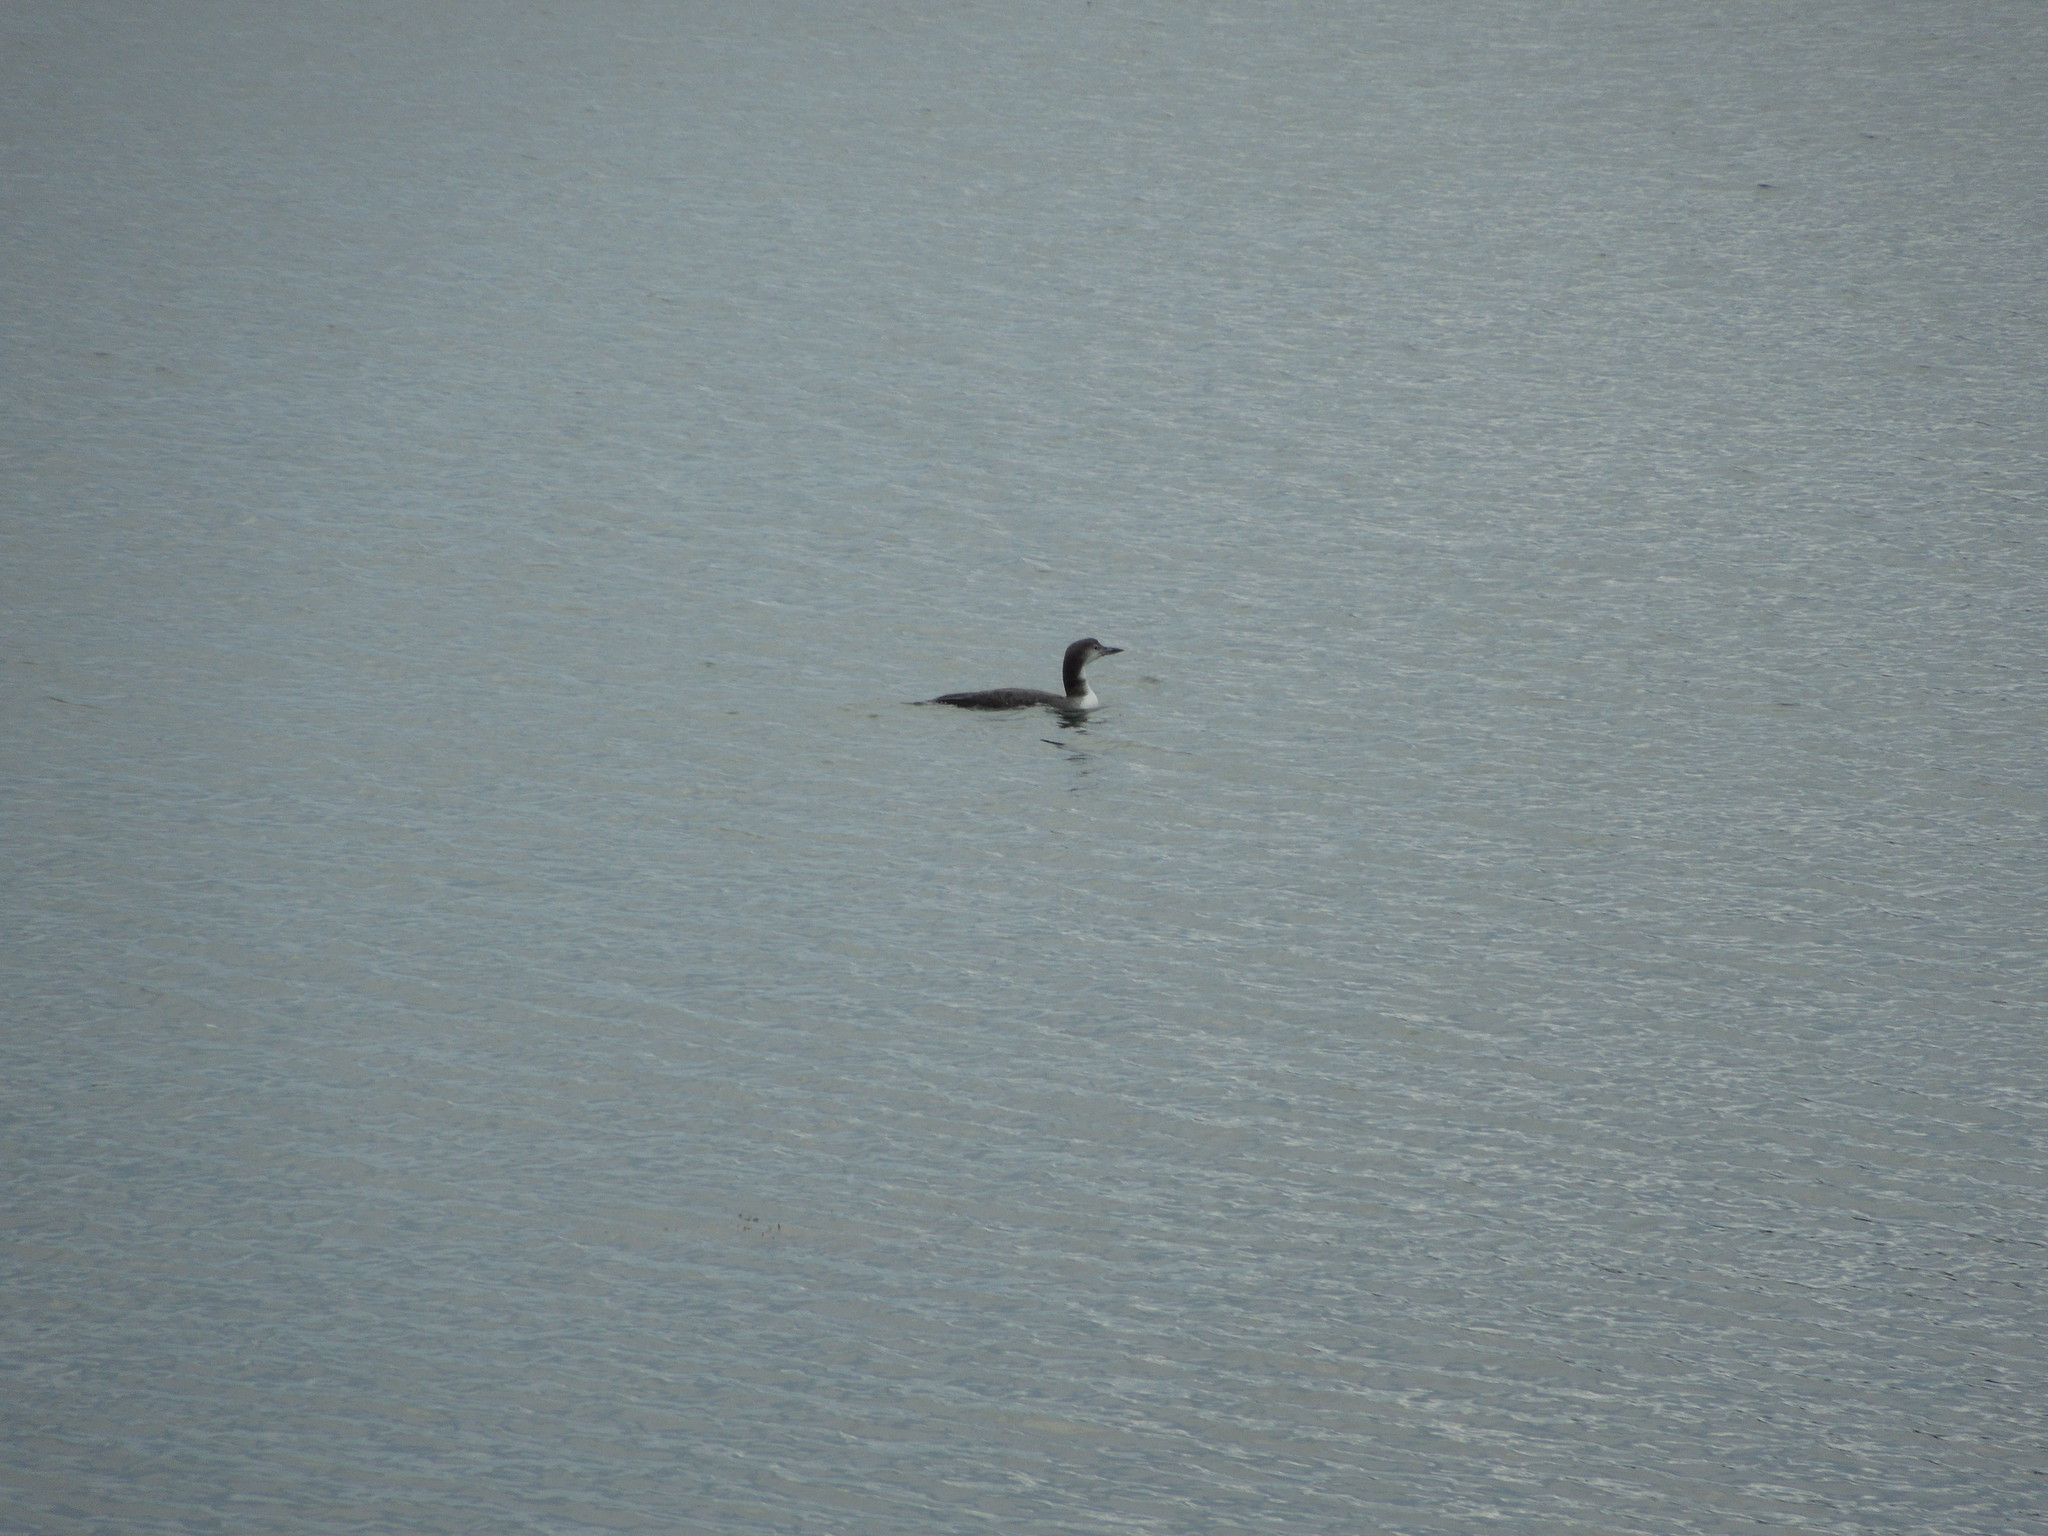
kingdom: Animalia
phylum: Chordata
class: Aves
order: Gaviiformes
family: Gaviidae
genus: Gavia
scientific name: Gavia immer
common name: Common loon
